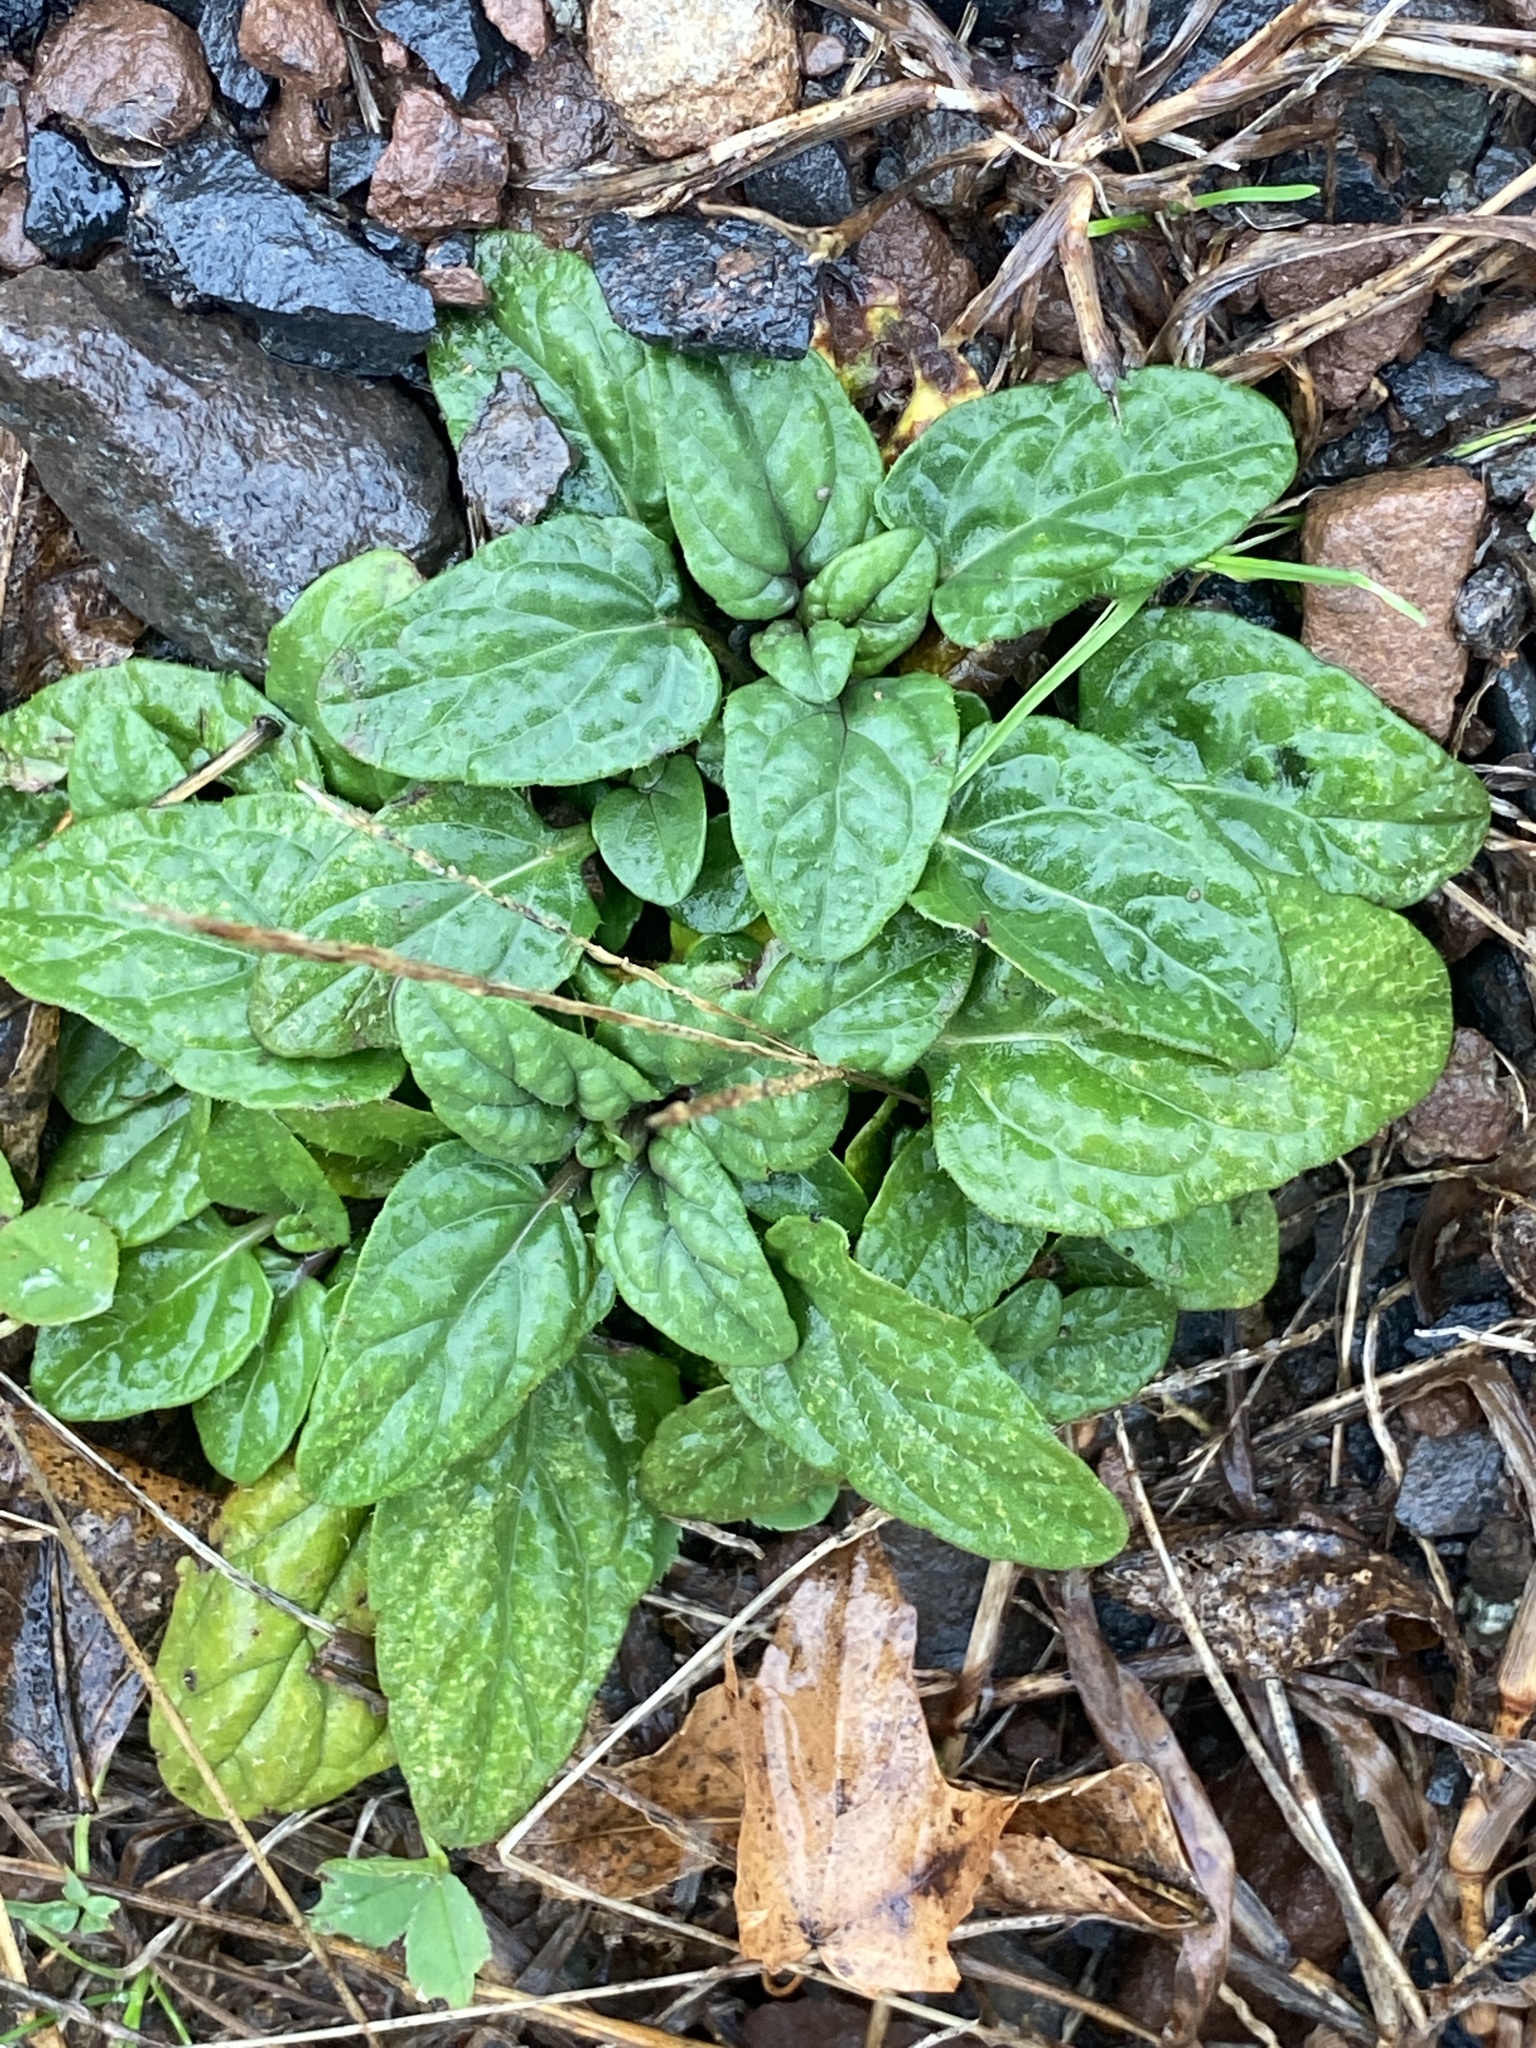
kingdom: Plantae
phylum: Tracheophyta
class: Magnoliopsida
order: Lamiales
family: Lamiaceae
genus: Prunella
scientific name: Prunella vulgaris
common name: Heal-all
